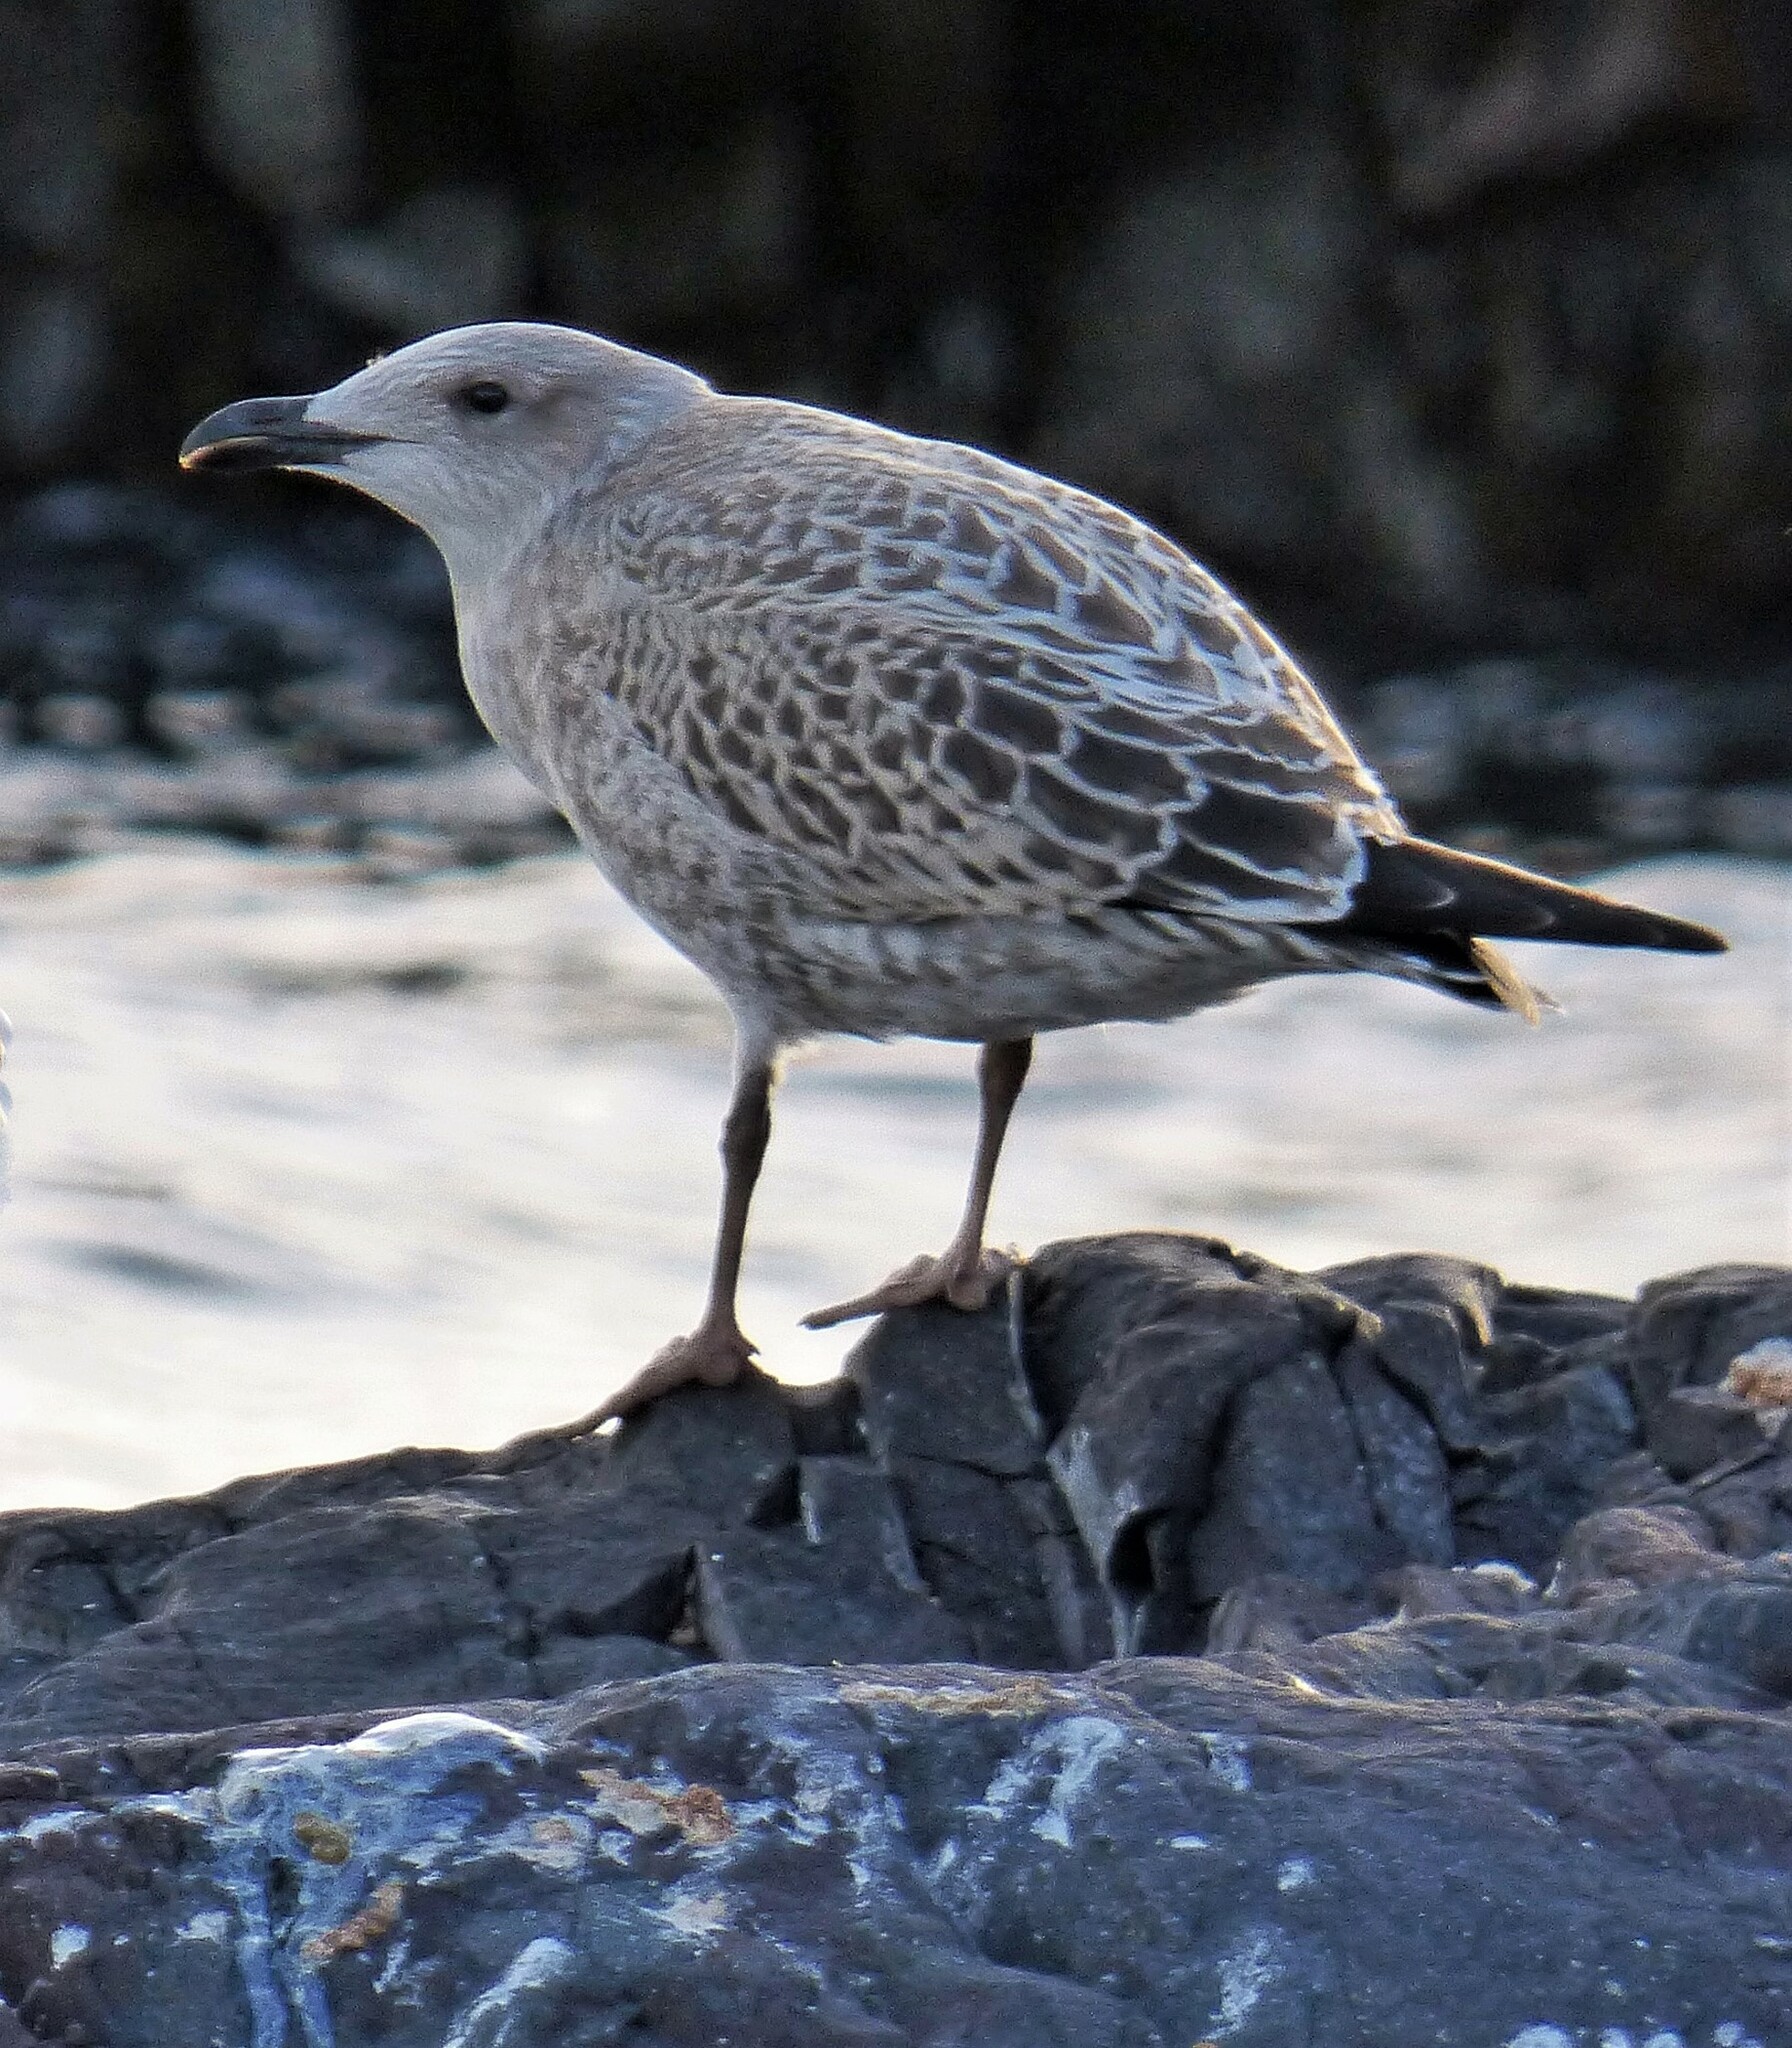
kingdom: Animalia
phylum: Chordata
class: Aves
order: Charadriiformes
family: Laridae
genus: Larus
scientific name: Larus dominicanus
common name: Kelp gull
